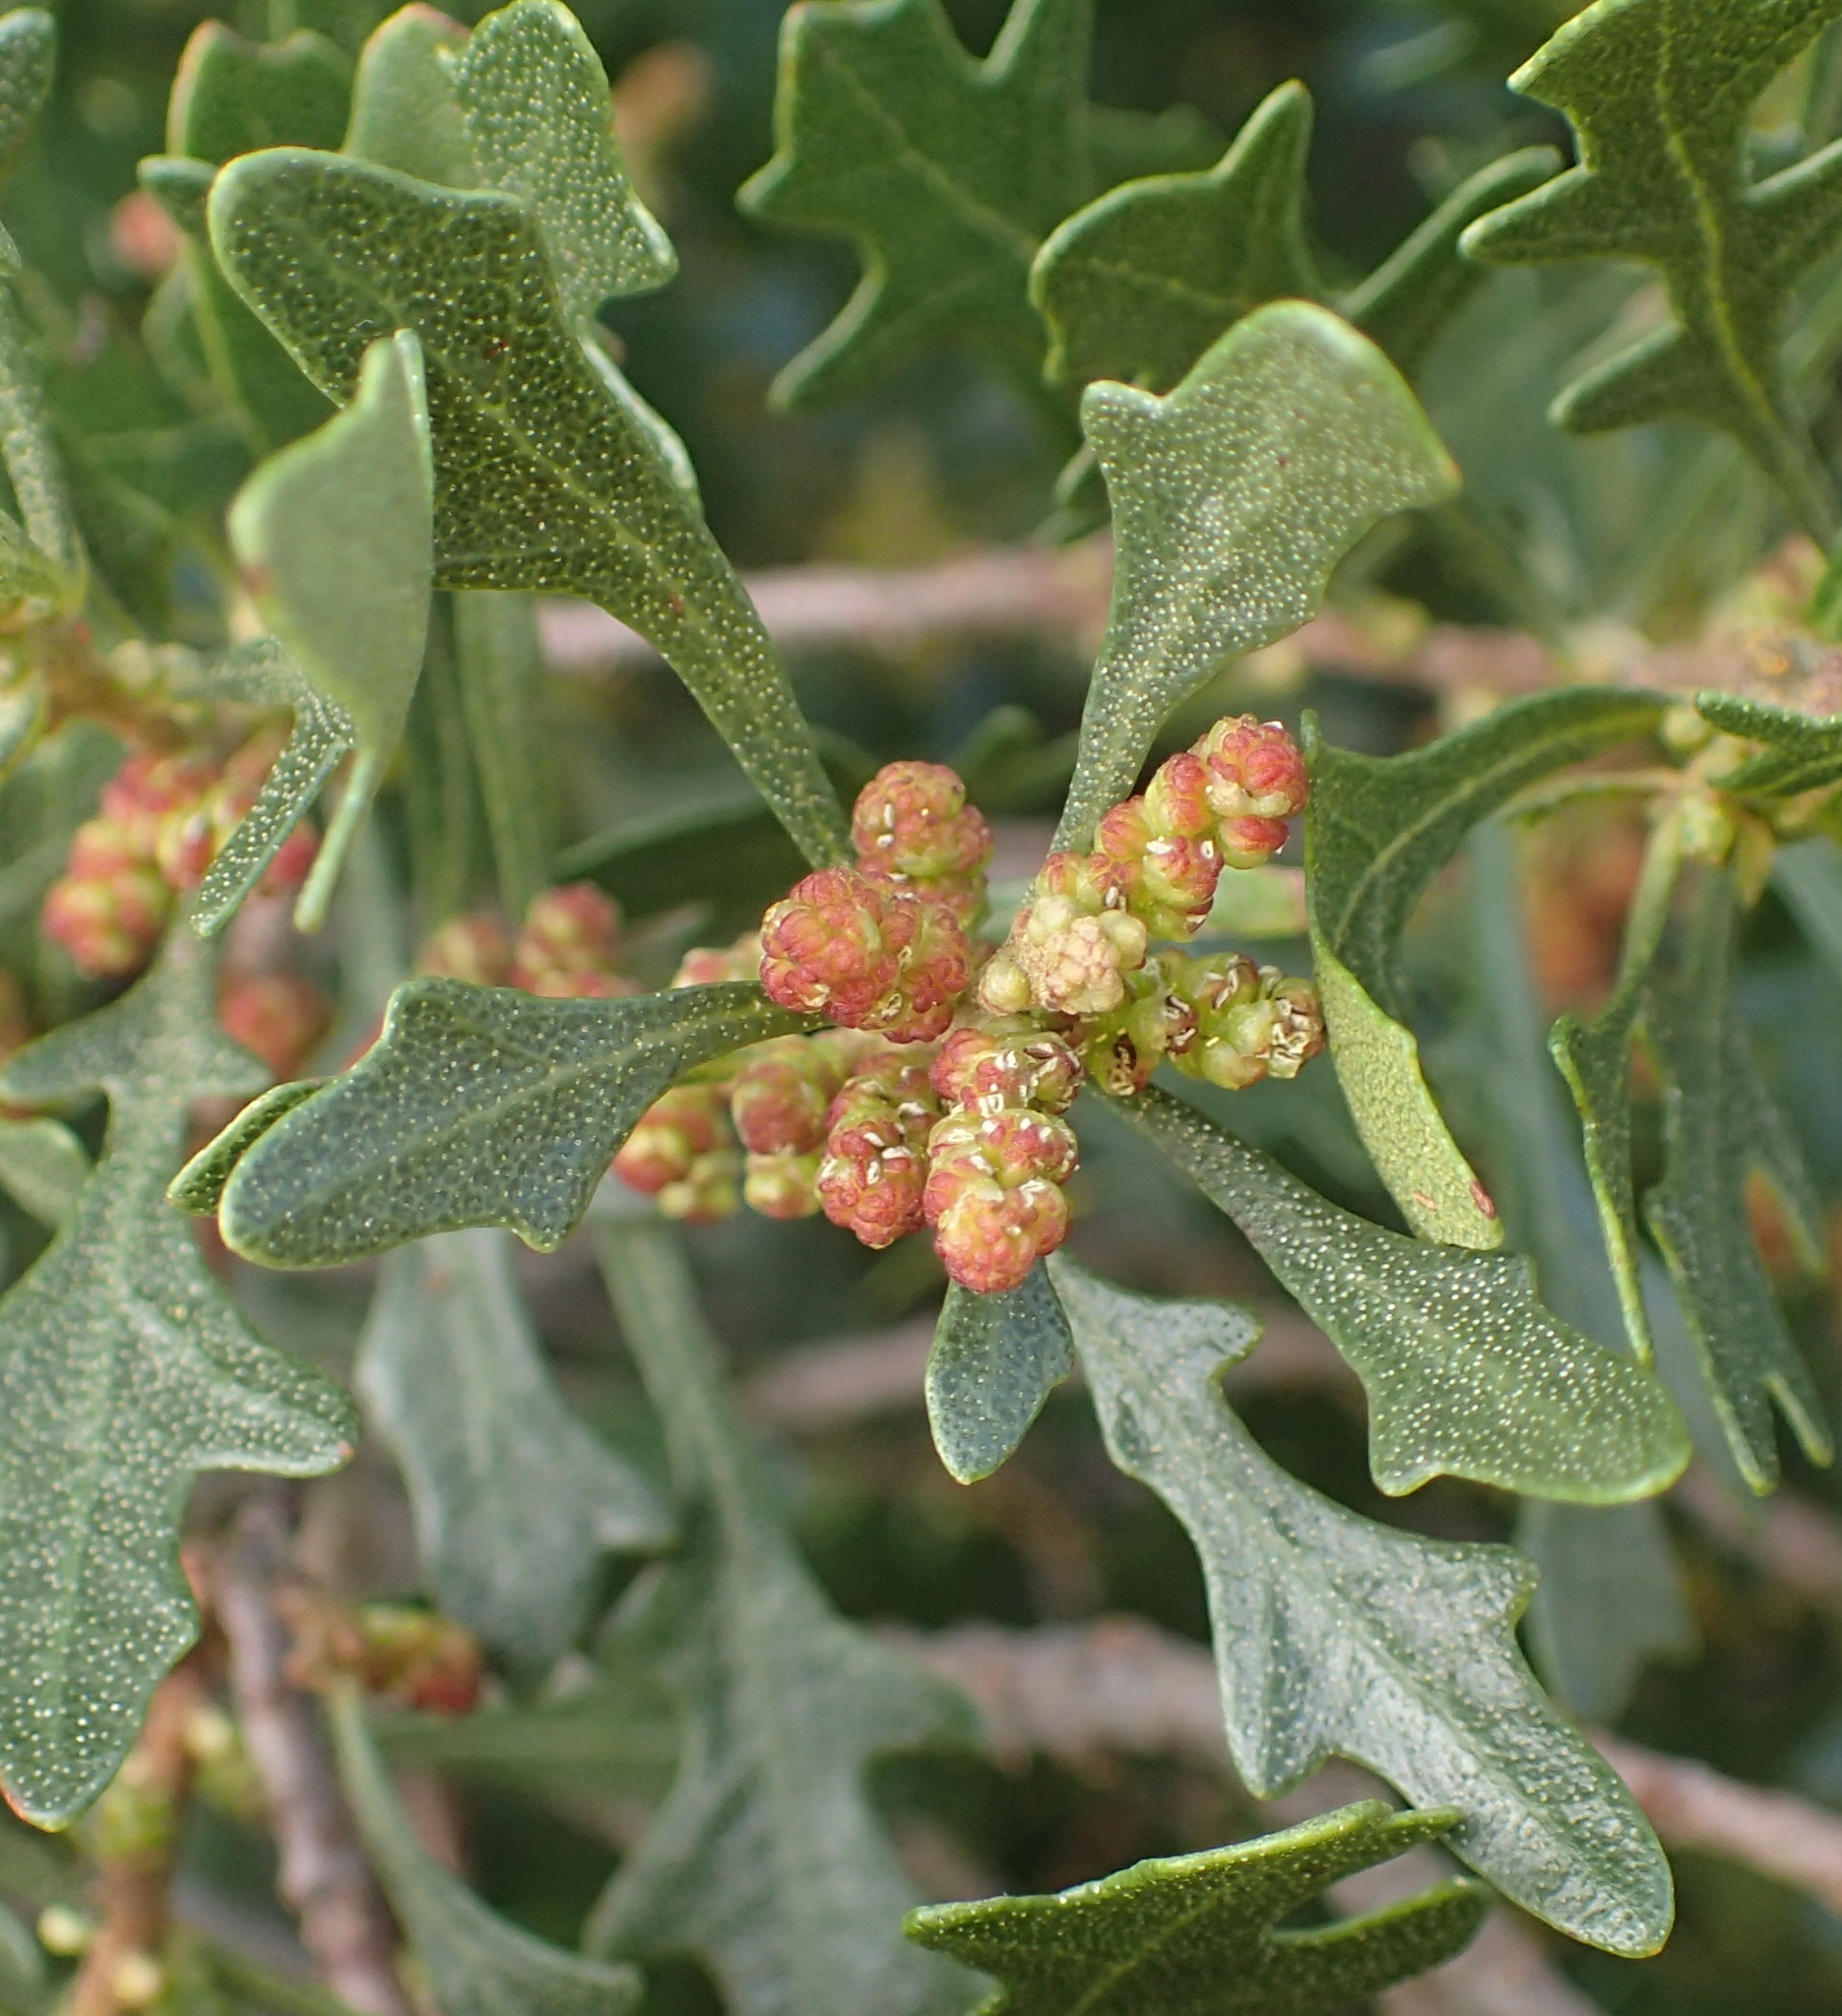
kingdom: Plantae
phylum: Tracheophyta
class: Magnoliopsida
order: Fagales
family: Myricaceae
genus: Morella
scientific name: Morella quercifolia
